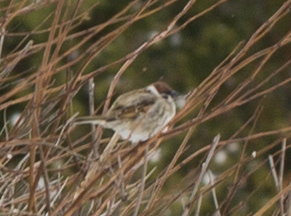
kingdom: Animalia
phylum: Chordata
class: Aves
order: Passeriformes
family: Passeridae
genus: Passer
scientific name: Passer montanus
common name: Eurasian tree sparrow
